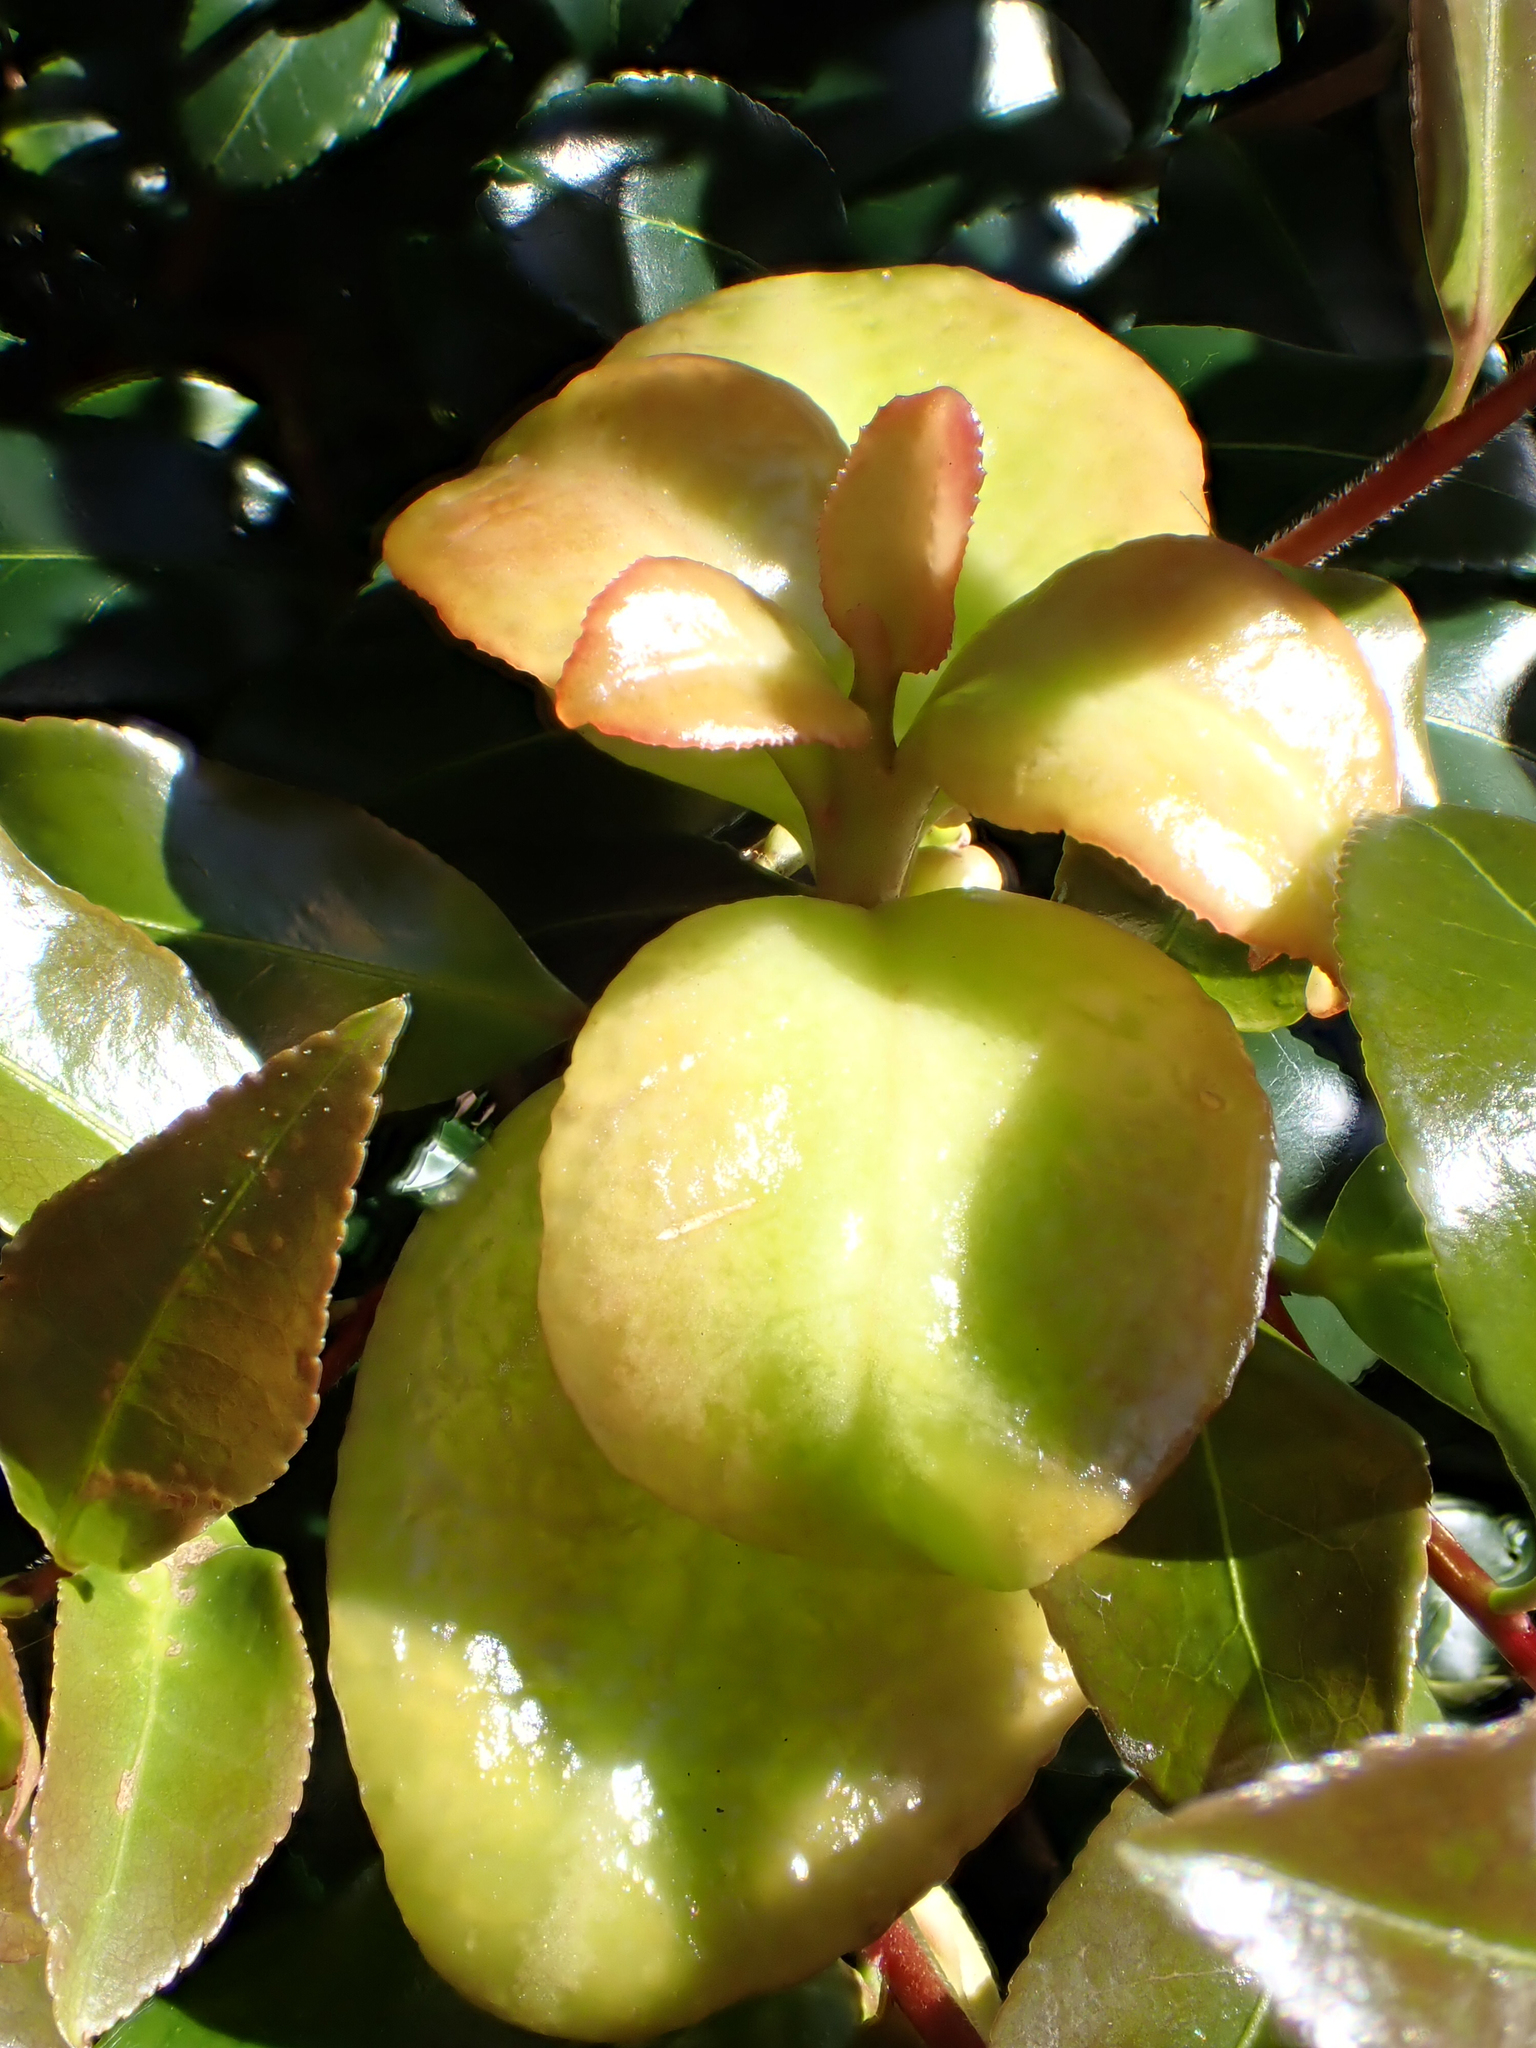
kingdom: Fungi
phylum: Basidiomycota
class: Exobasidiomycetes
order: Exobasidiales
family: Exobasidiaceae
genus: Exobasidium
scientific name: Exobasidium camelliae
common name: Camellia gall
